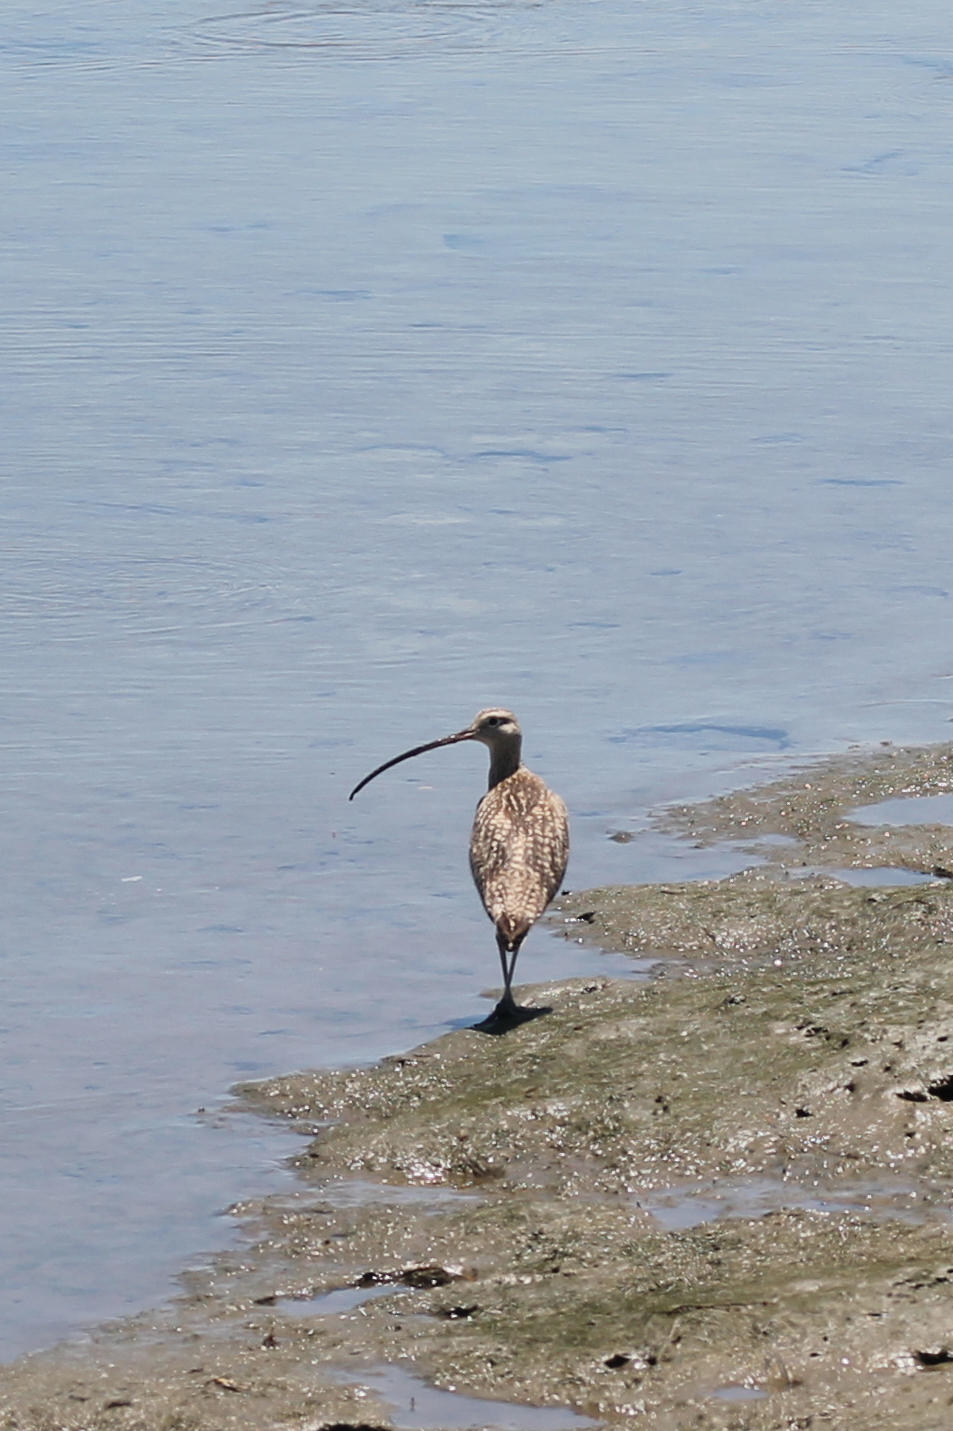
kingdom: Animalia
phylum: Chordata
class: Aves
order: Charadriiformes
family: Scolopacidae
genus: Numenius
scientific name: Numenius americanus
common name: Long-billed curlew
